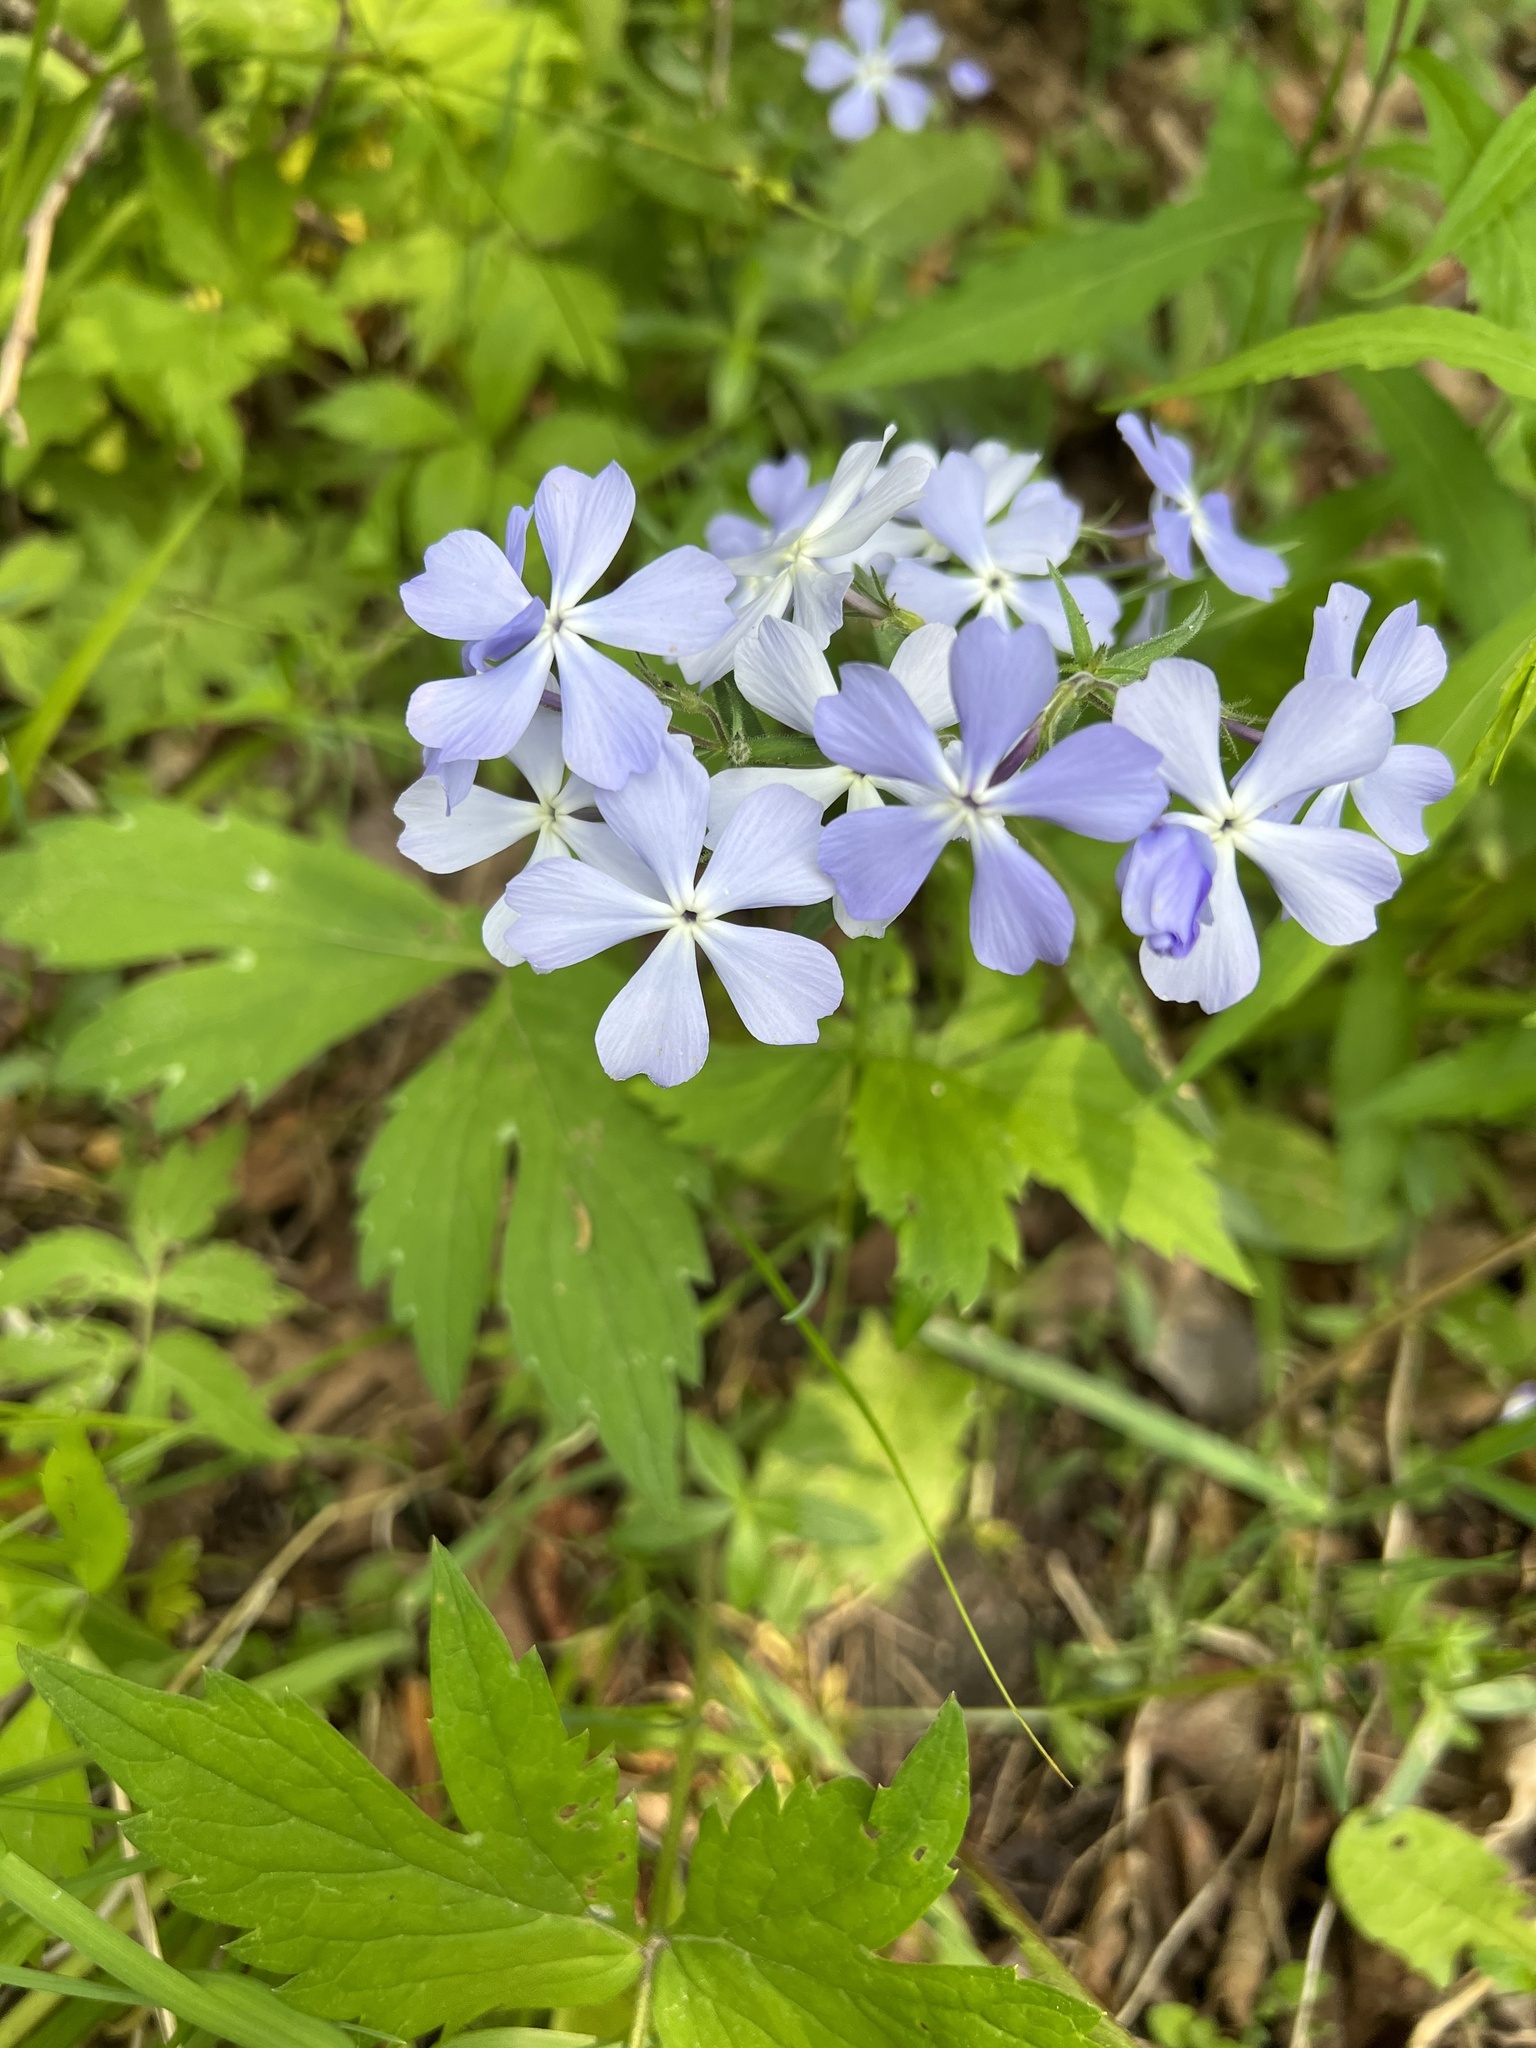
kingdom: Plantae
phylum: Tracheophyta
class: Magnoliopsida
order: Ericales
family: Polemoniaceae
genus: Phlox
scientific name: Phlox divaricata
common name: Blue phlox
